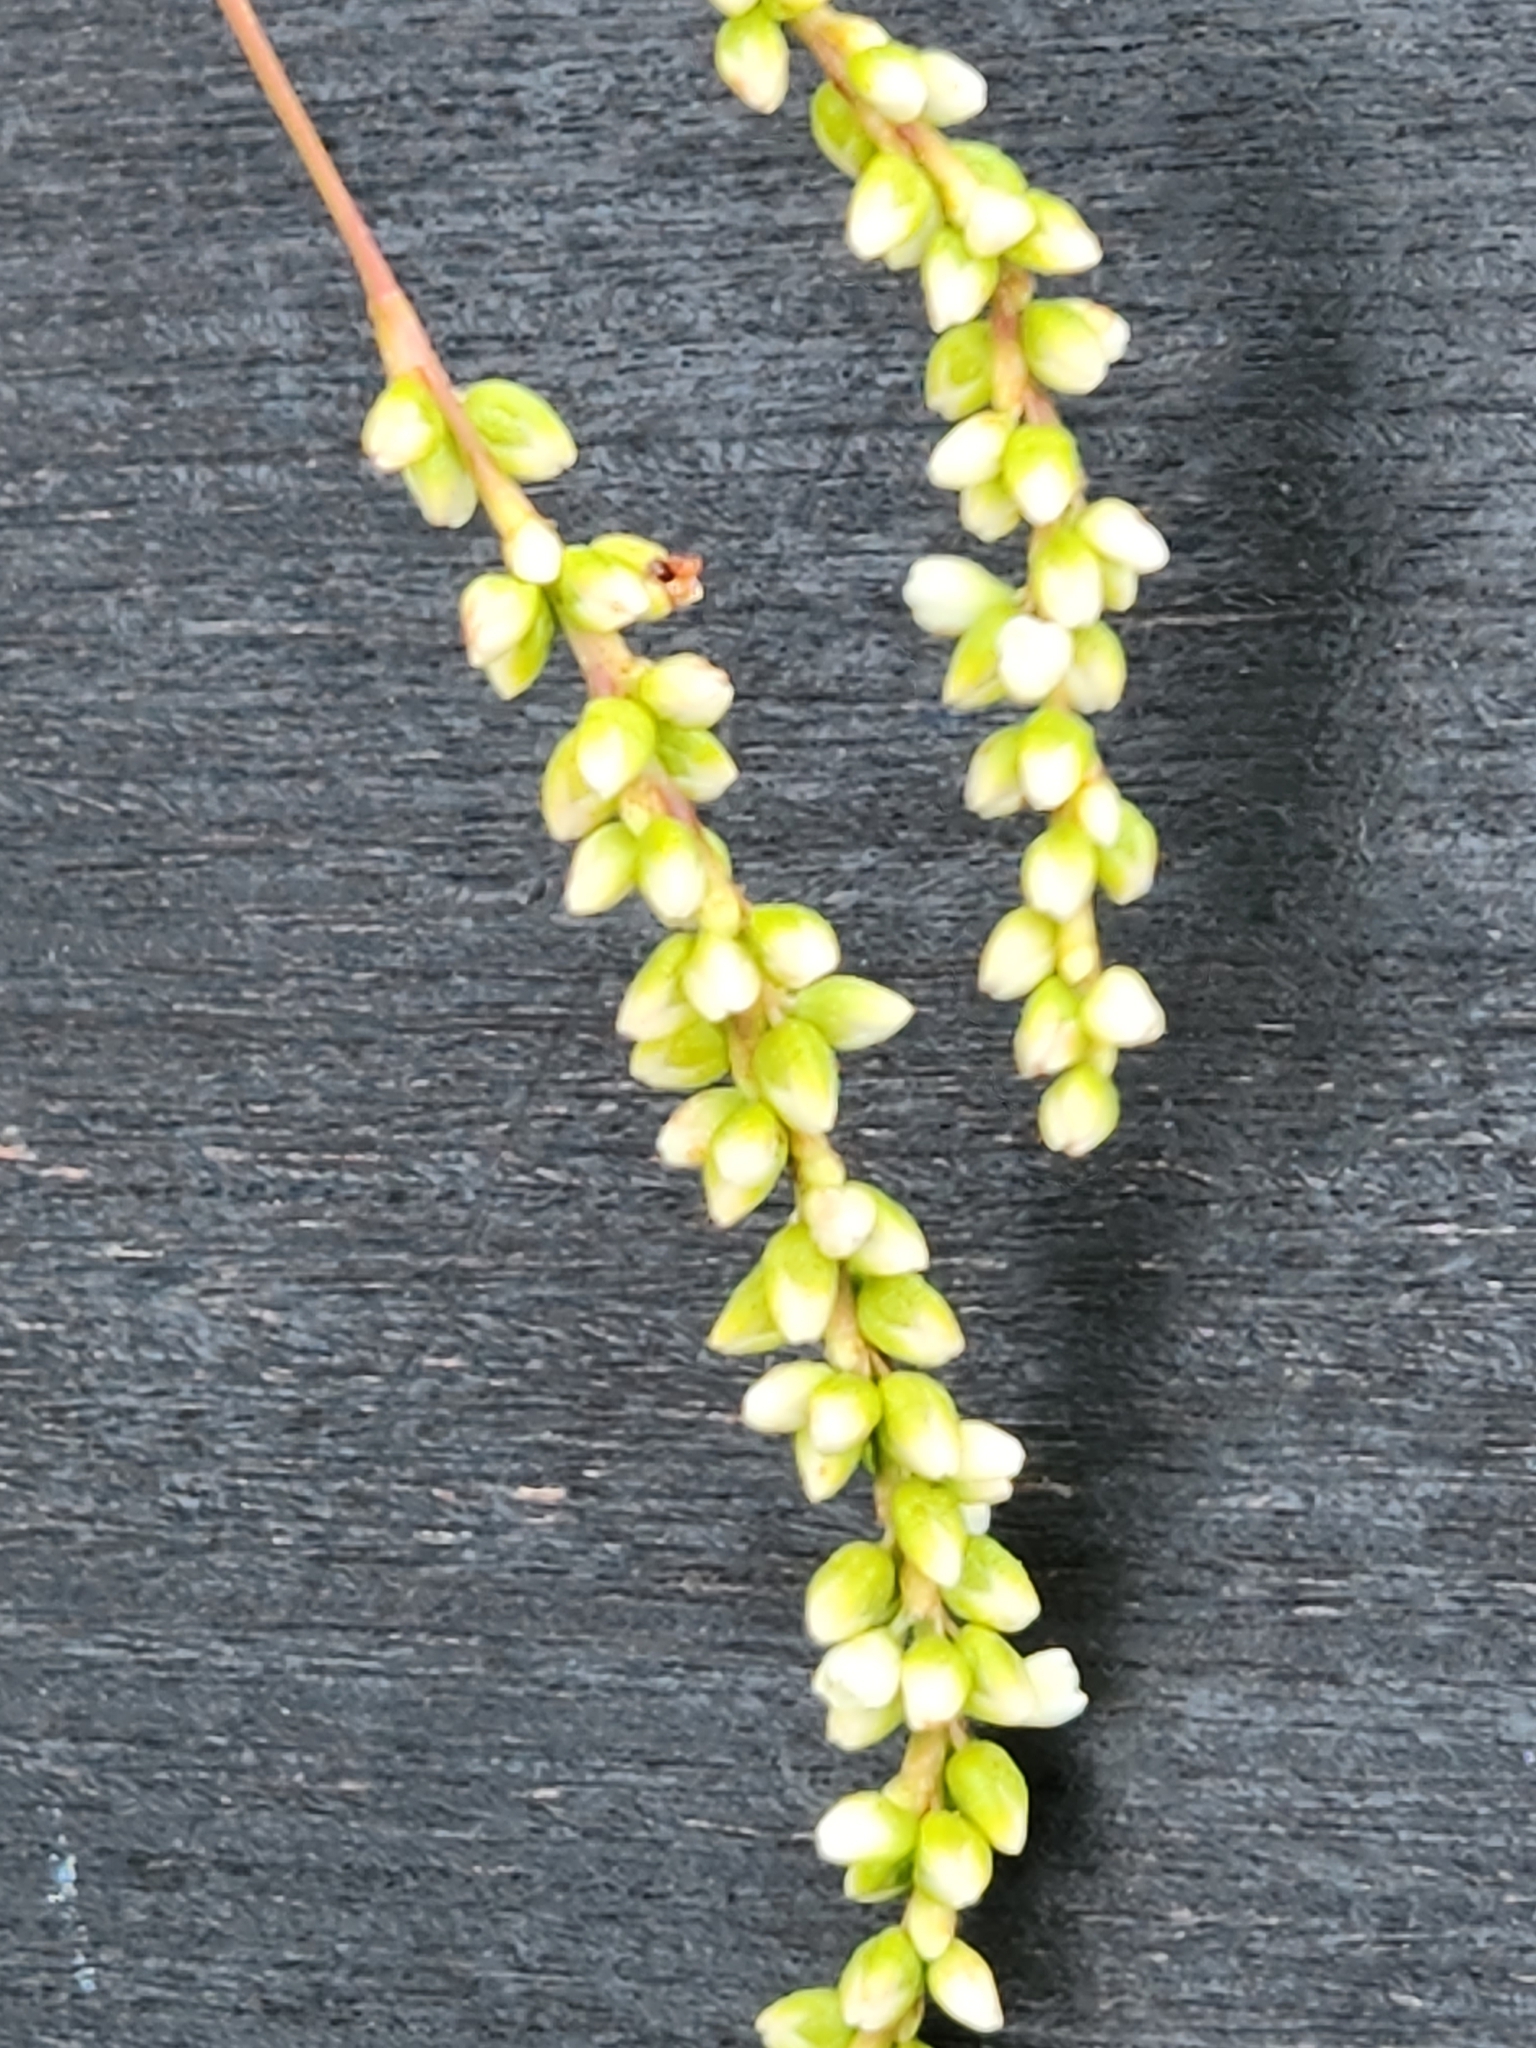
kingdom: Plantae
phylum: Tracheophyta
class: Magnoliopsida
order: Caryophyllales
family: Polygonaceae
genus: Persicaria
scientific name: Persicaria punctata
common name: Dotted smartweed
